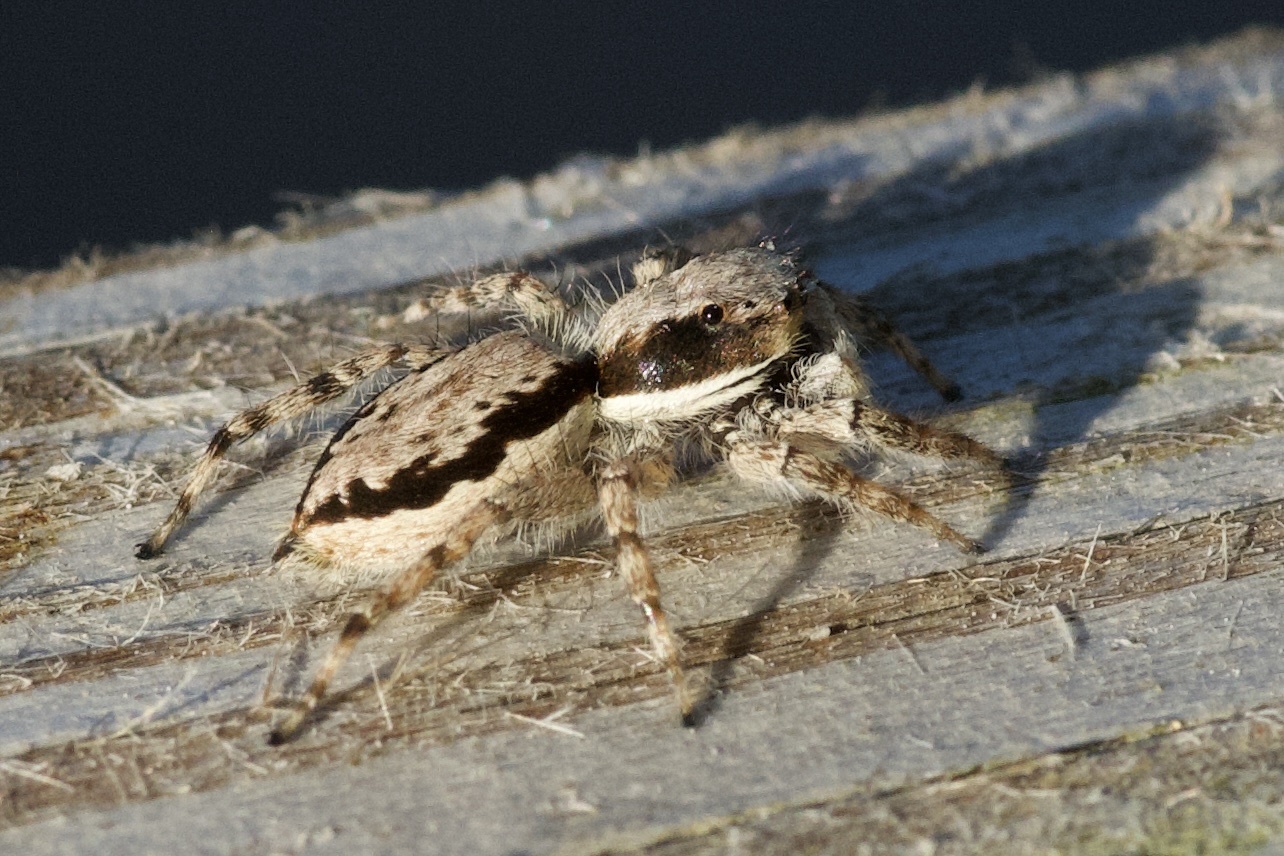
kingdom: Animalia
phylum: Arthropoda
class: Arachnida
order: Araneae
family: Salticidae
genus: Menemerus
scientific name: Menemerus bivittatus
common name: Gray wall jumper
